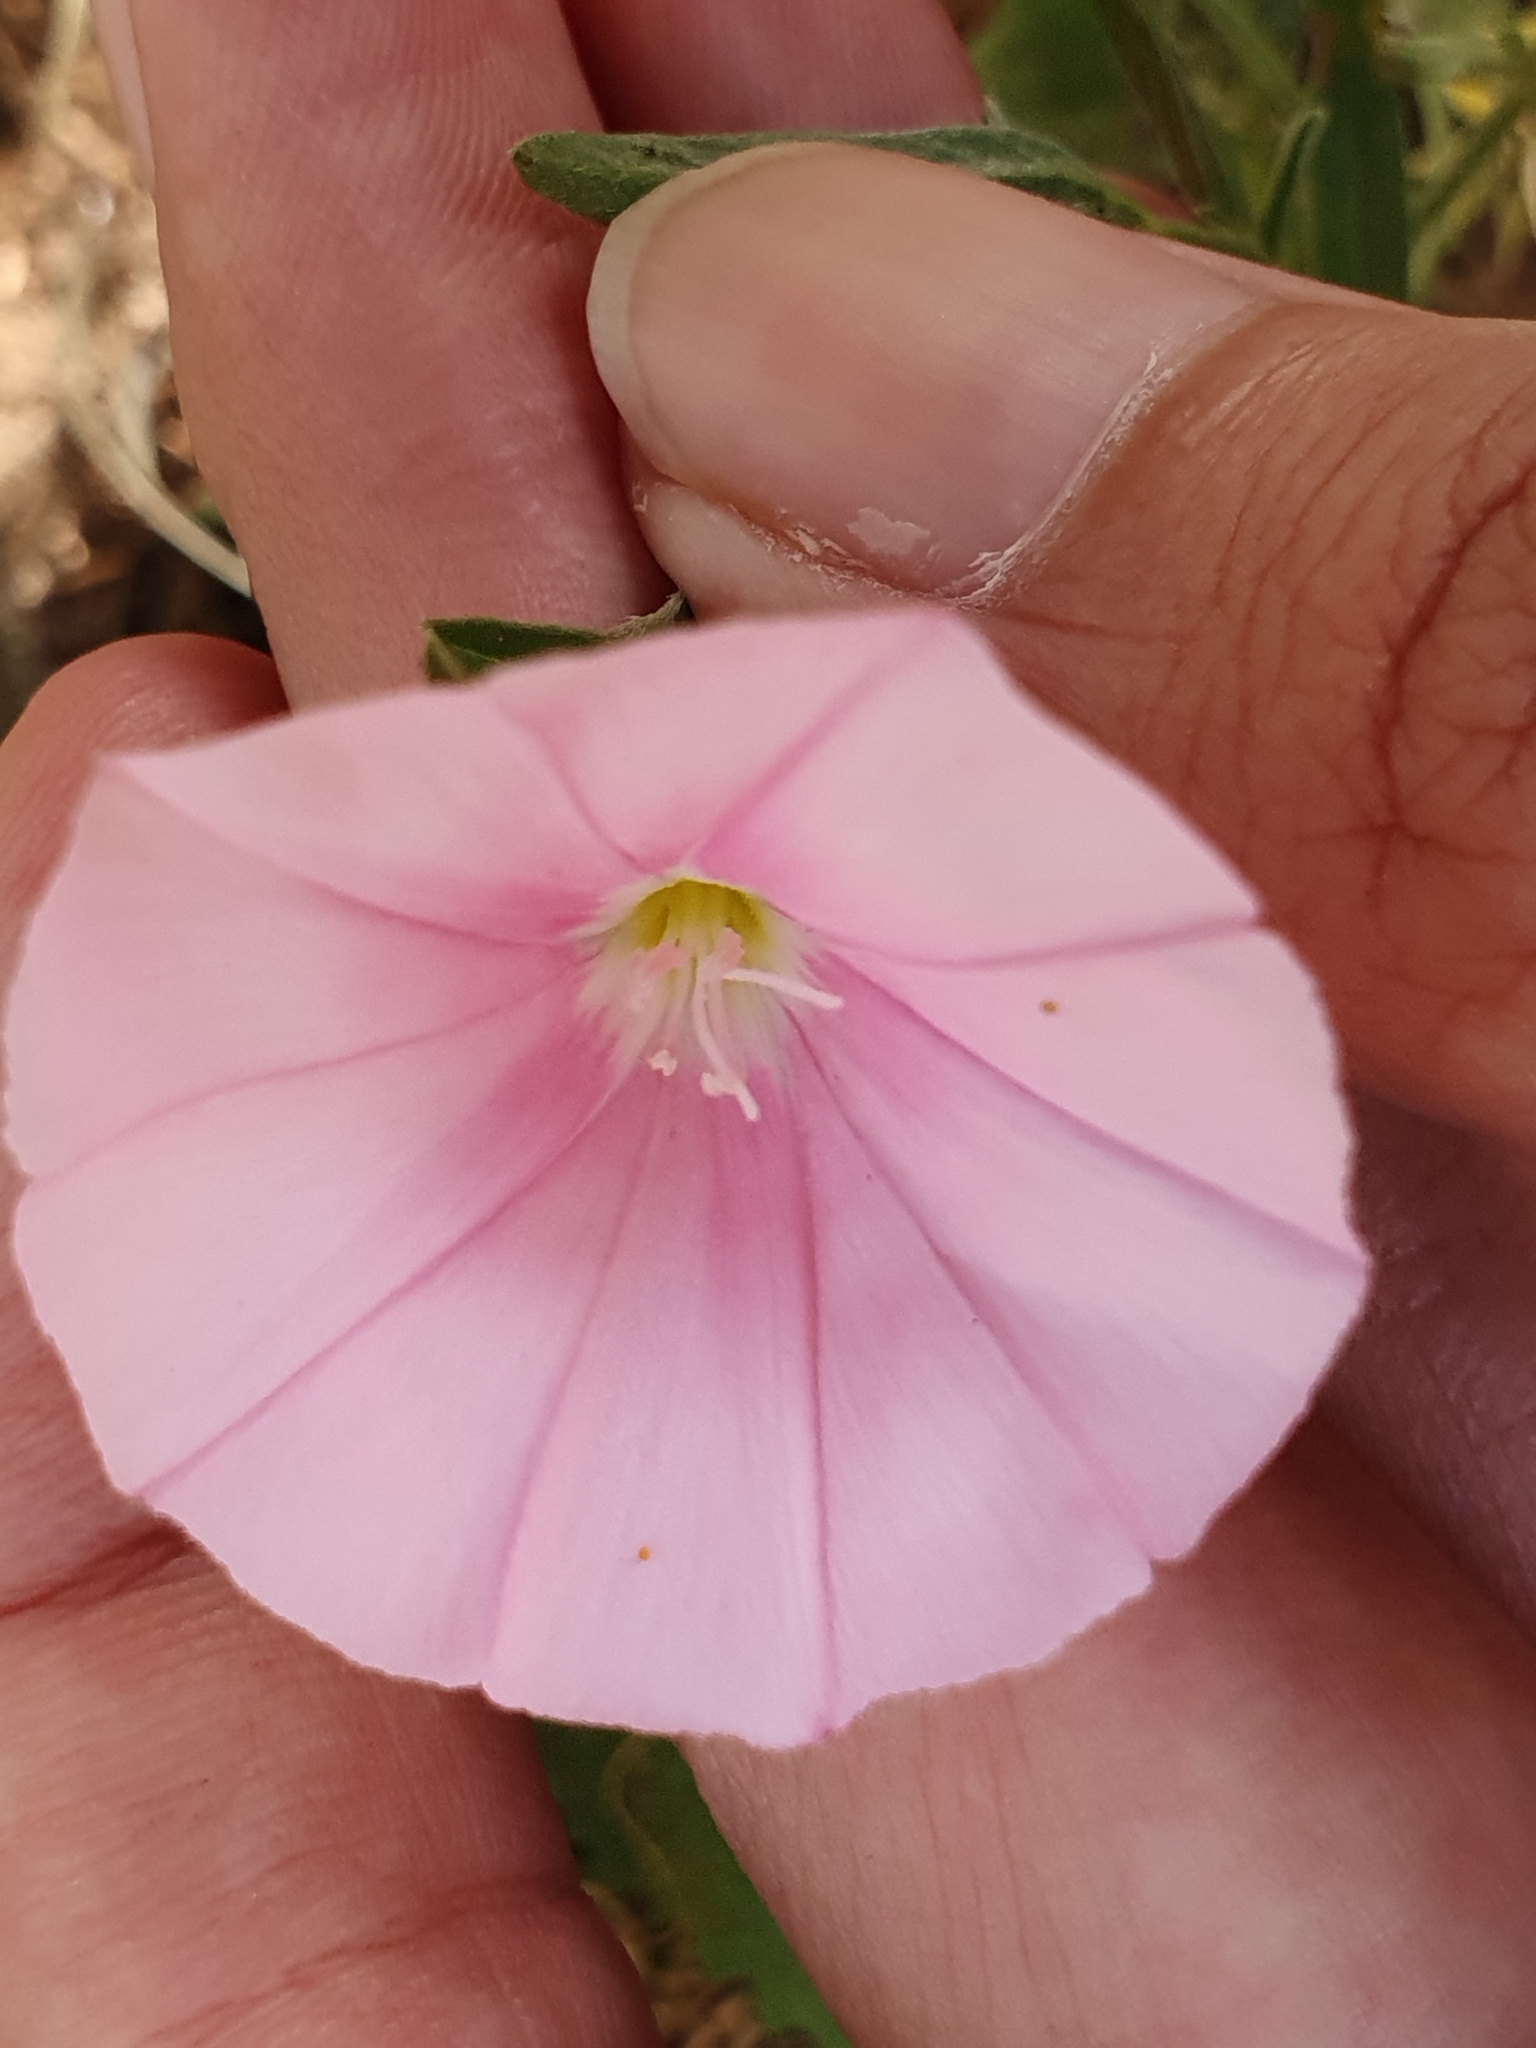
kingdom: Plantae
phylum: Tracheophyta
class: Magnoliopsida
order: Solanales
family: Convolvulaceae
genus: Convolvulus
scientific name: Convolvulus cantabrica
